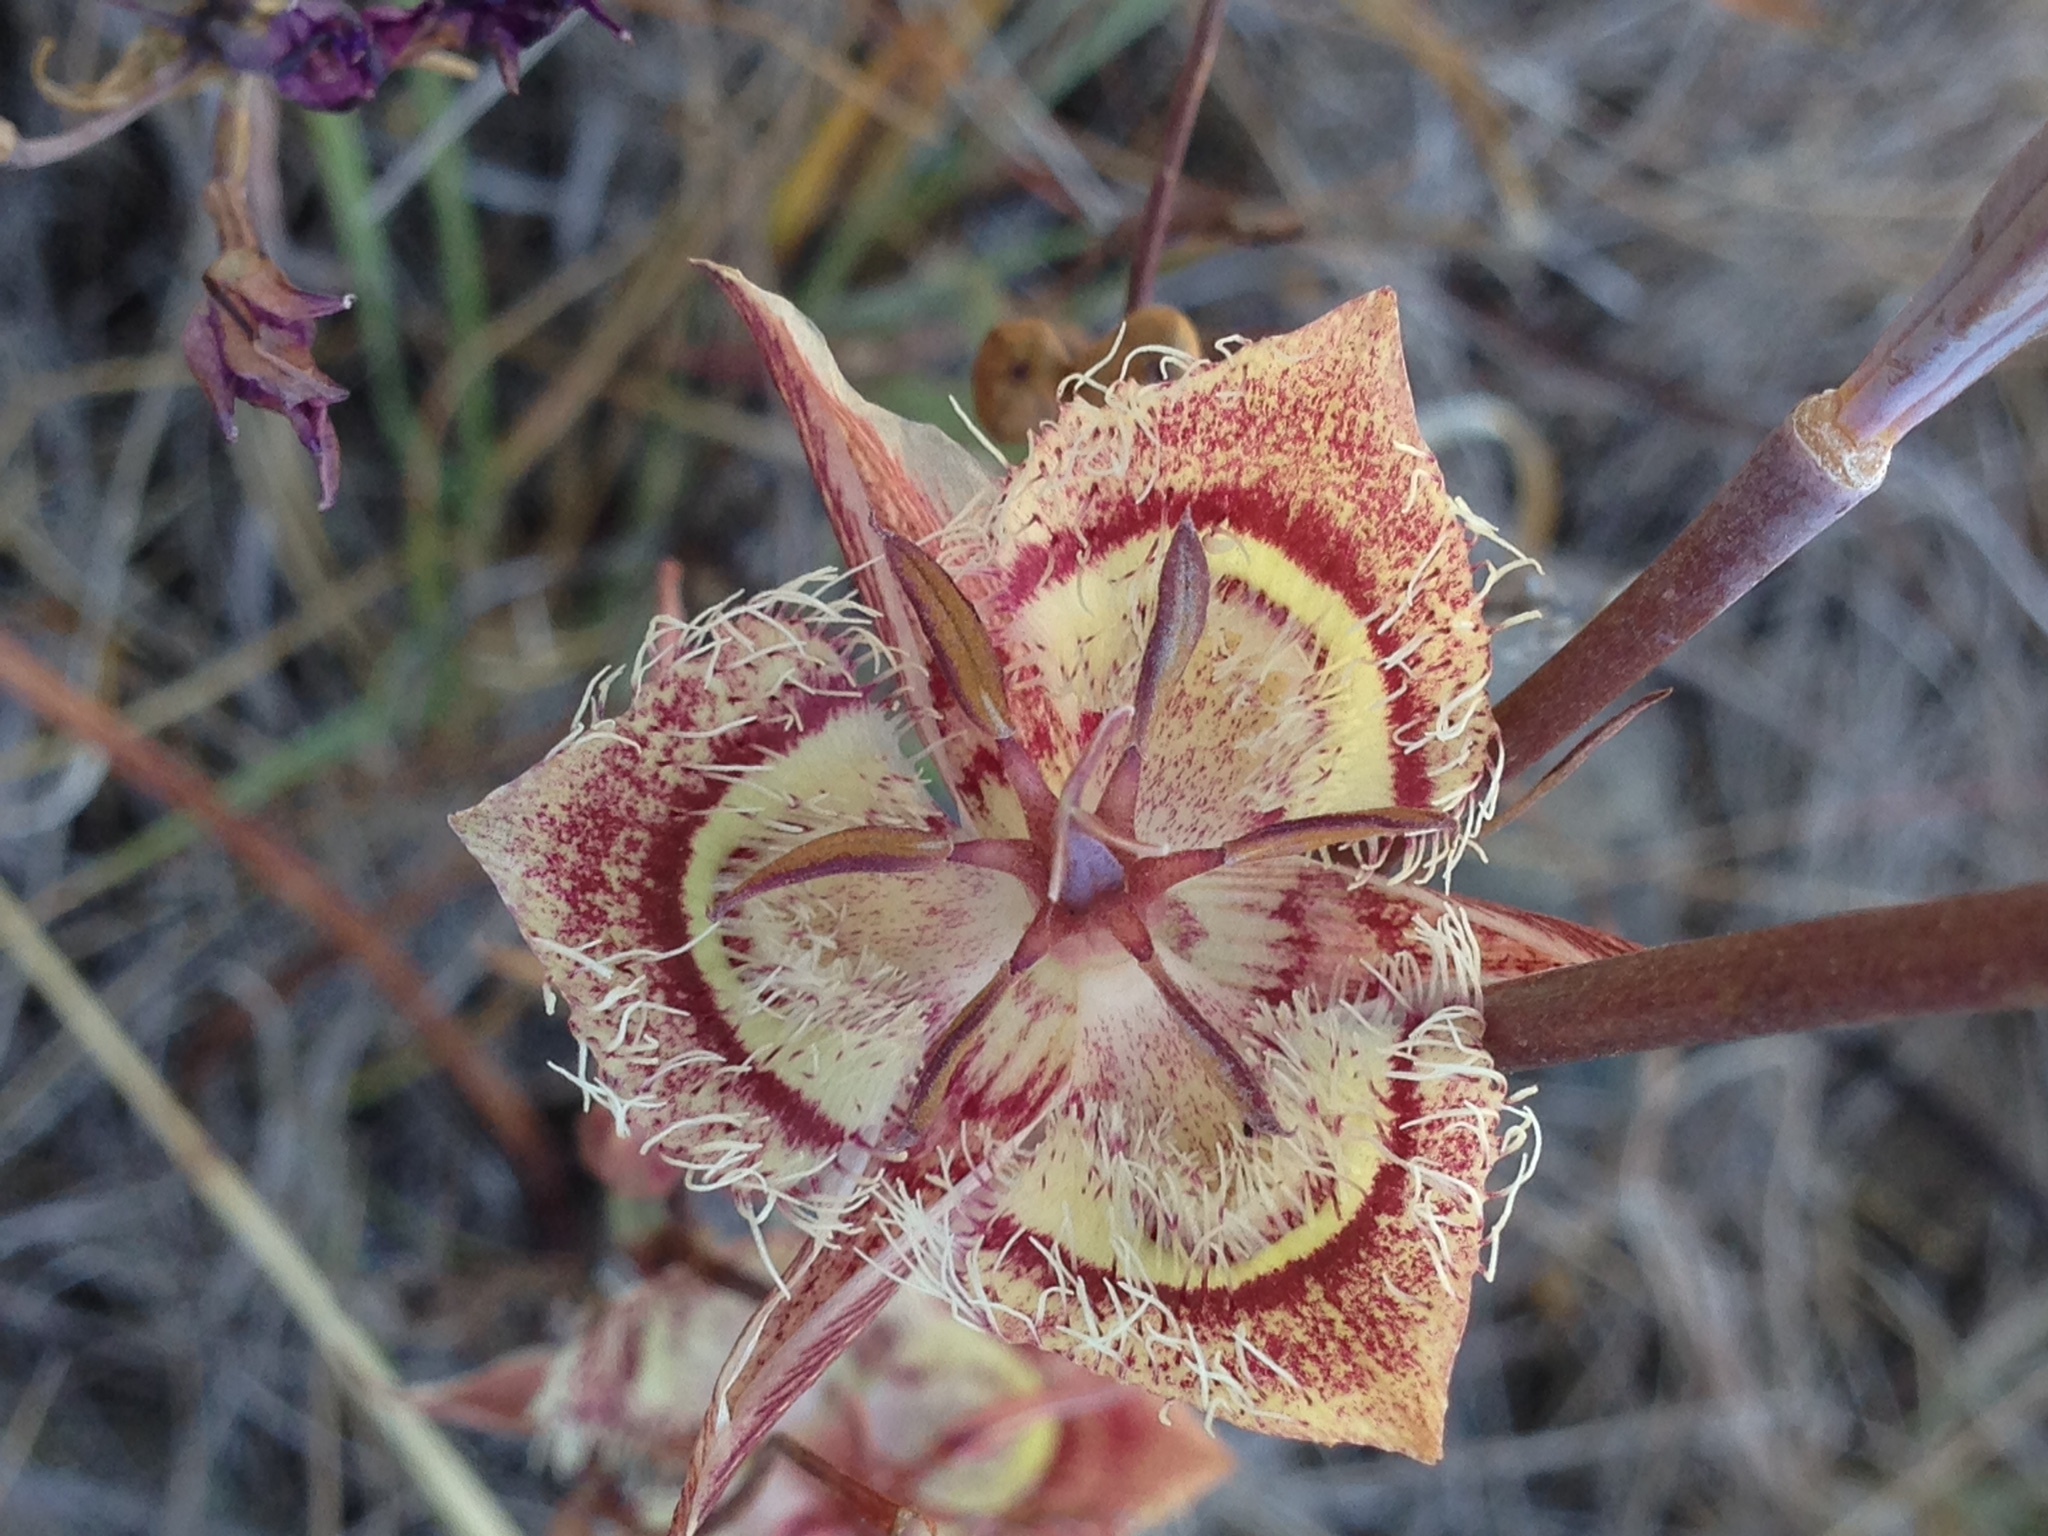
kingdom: Plantae
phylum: Tracheophyta
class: Liliopsida
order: Liliales
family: Liliaceae
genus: Calochortus
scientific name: Calochortus tiburonensis
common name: Tiburon mariposa-lily
